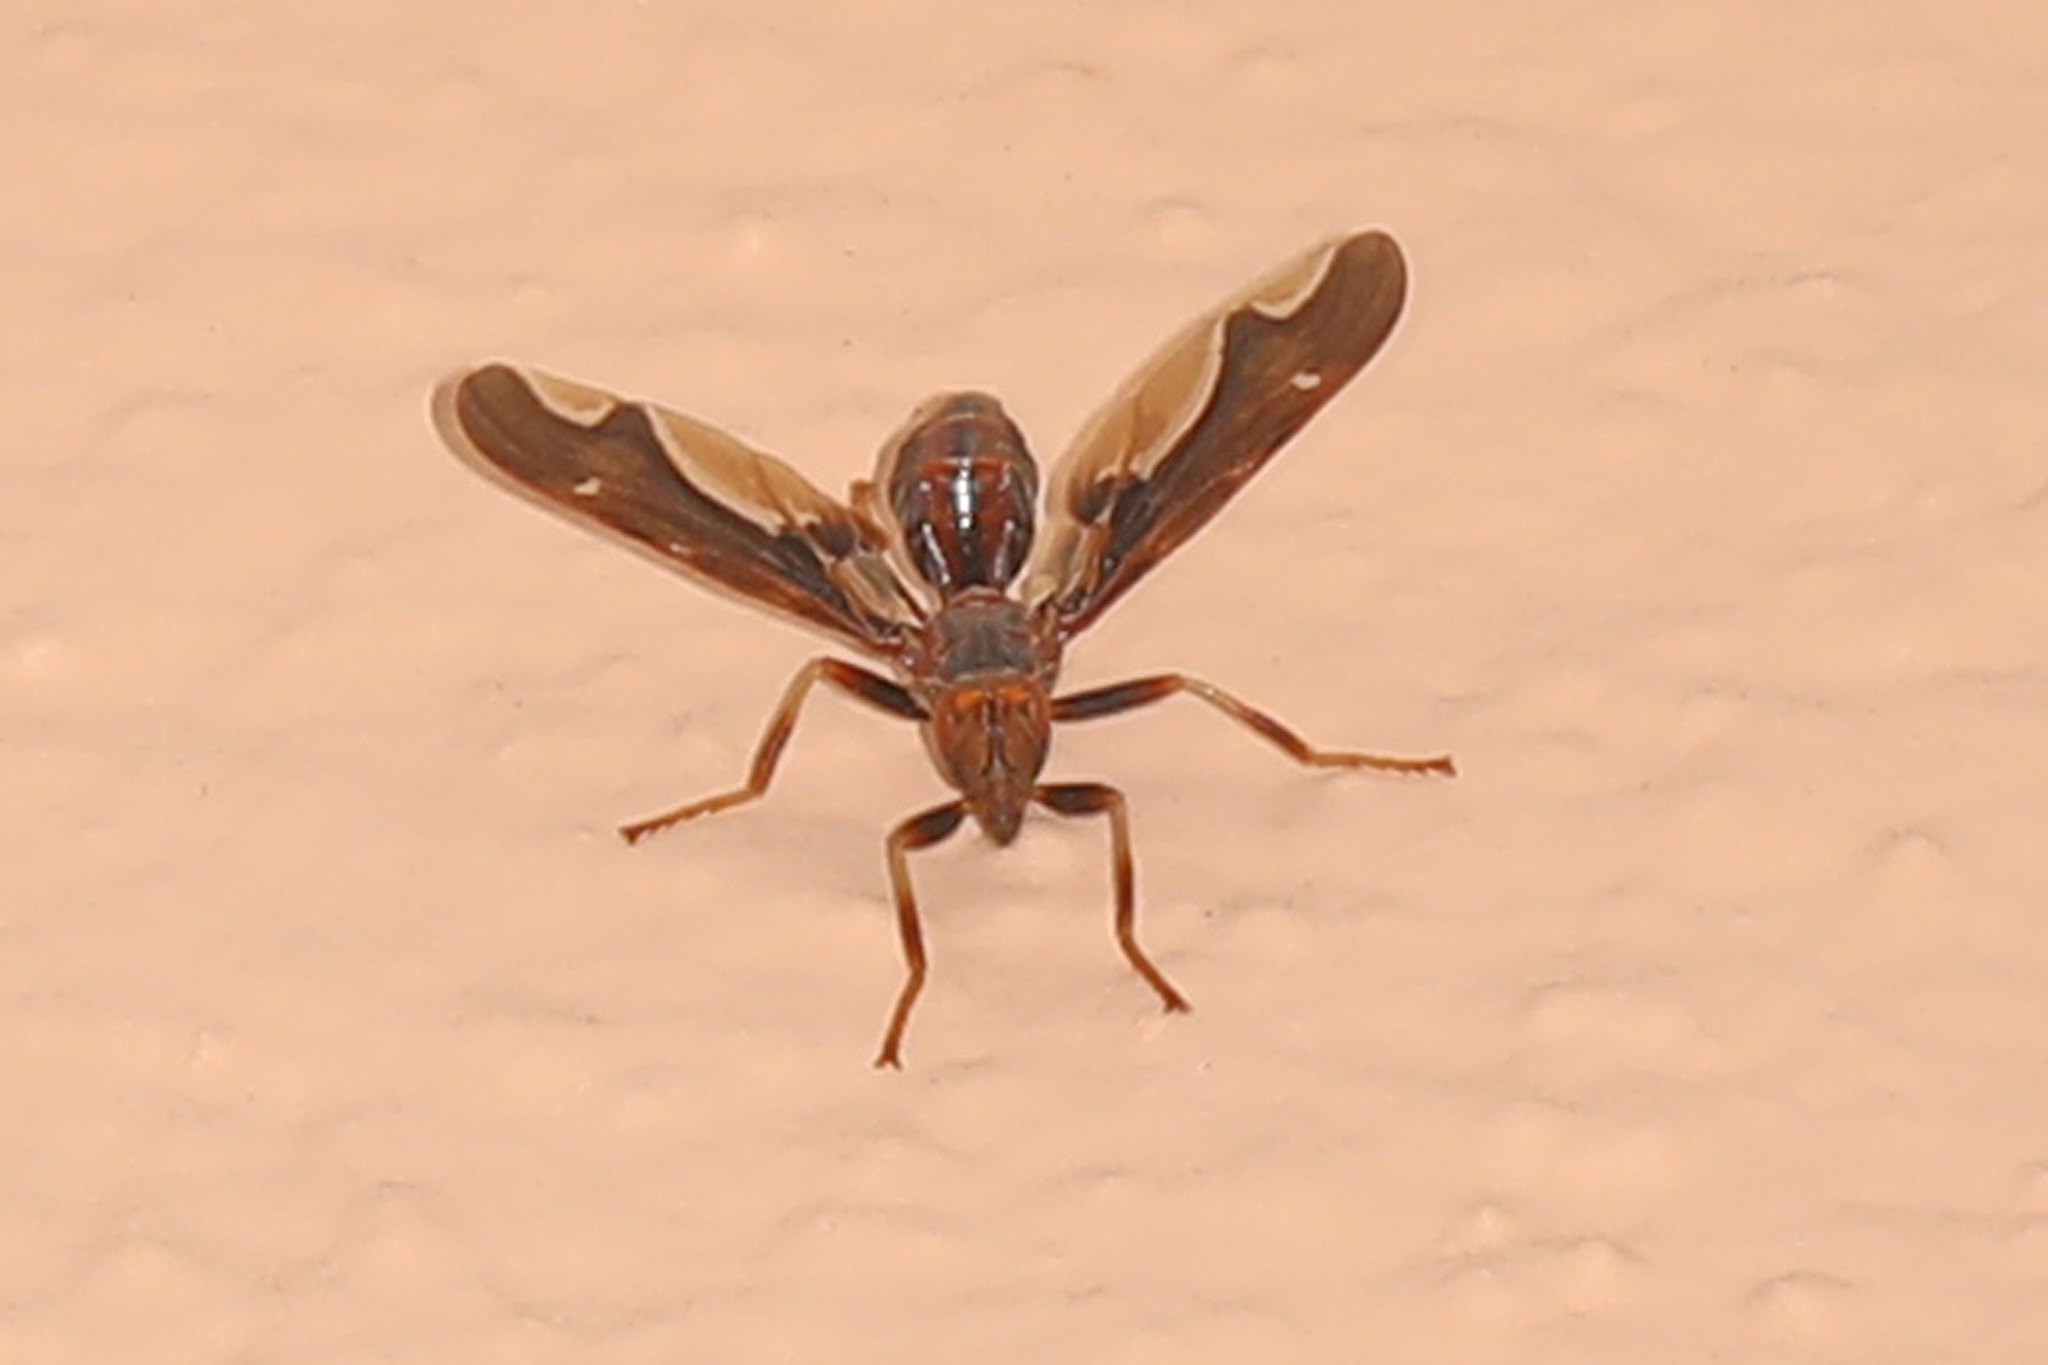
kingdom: Animalia
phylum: Arthropoda
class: Insecta
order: Diptera
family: Pyrgotidae
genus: Pyrgota
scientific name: Pyrgota undata
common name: Waved light fly
